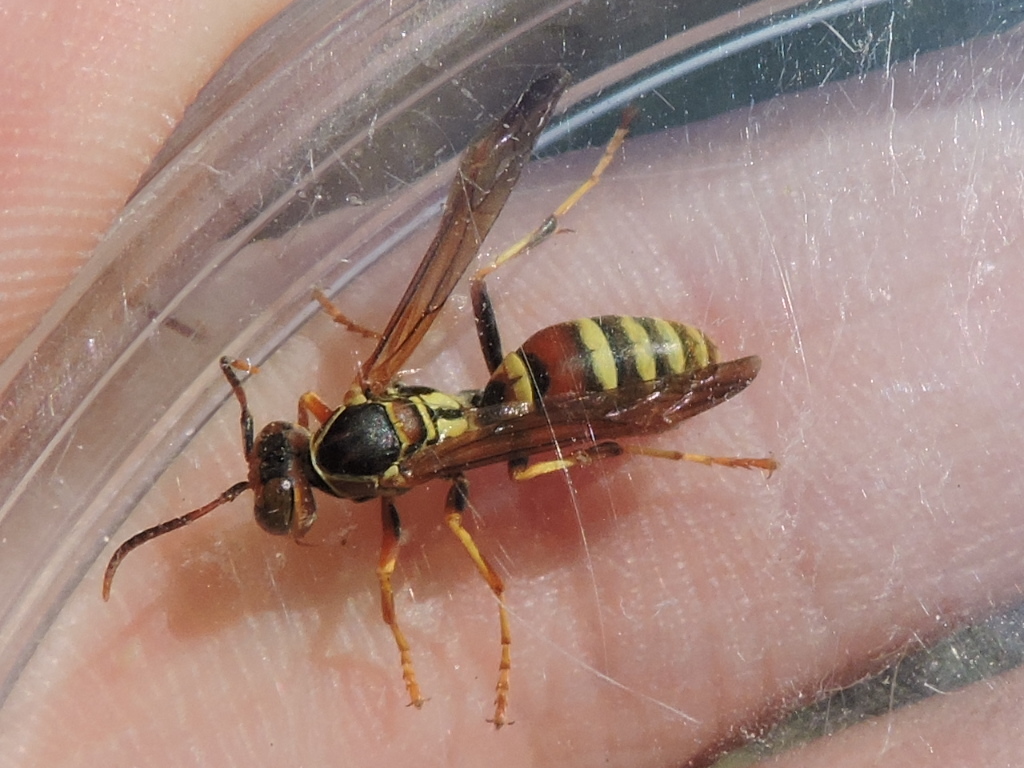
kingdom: Animalia
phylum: Arthropoda
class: Insecta
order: Hymenoptera
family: Eumenidae
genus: Polistes
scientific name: Polistes dorsalis
